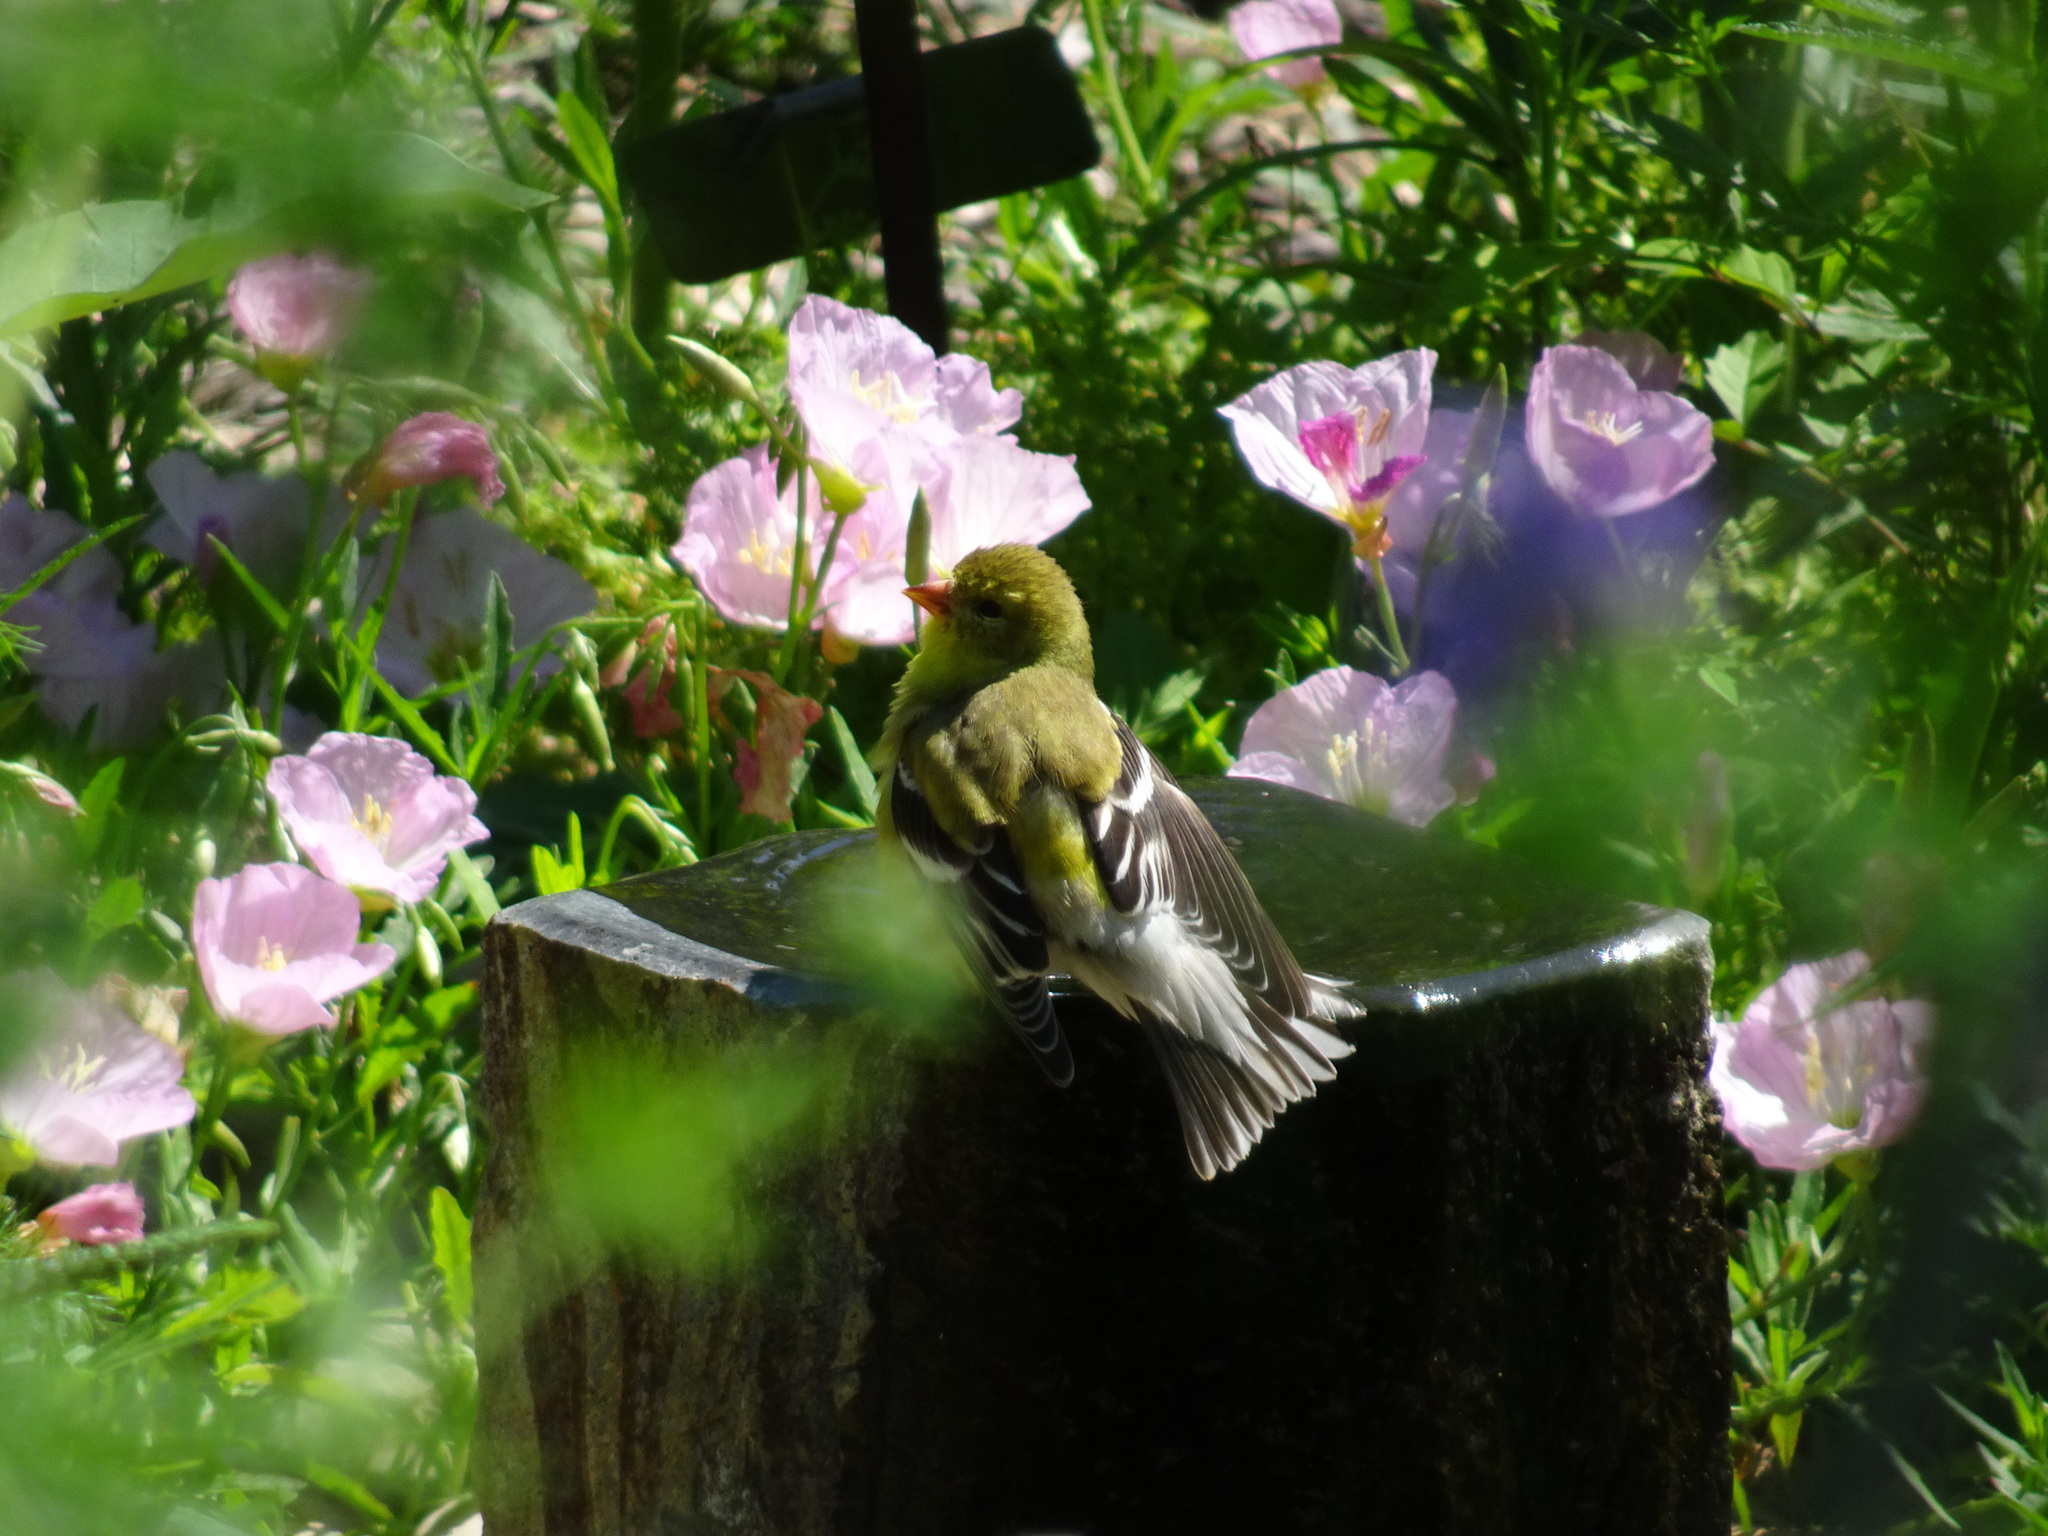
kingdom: Animalia
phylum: Chordata
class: Aves
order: Passeriformes
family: Fringillidae
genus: Spinus
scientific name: Spinus tristis
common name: American goldfinch
